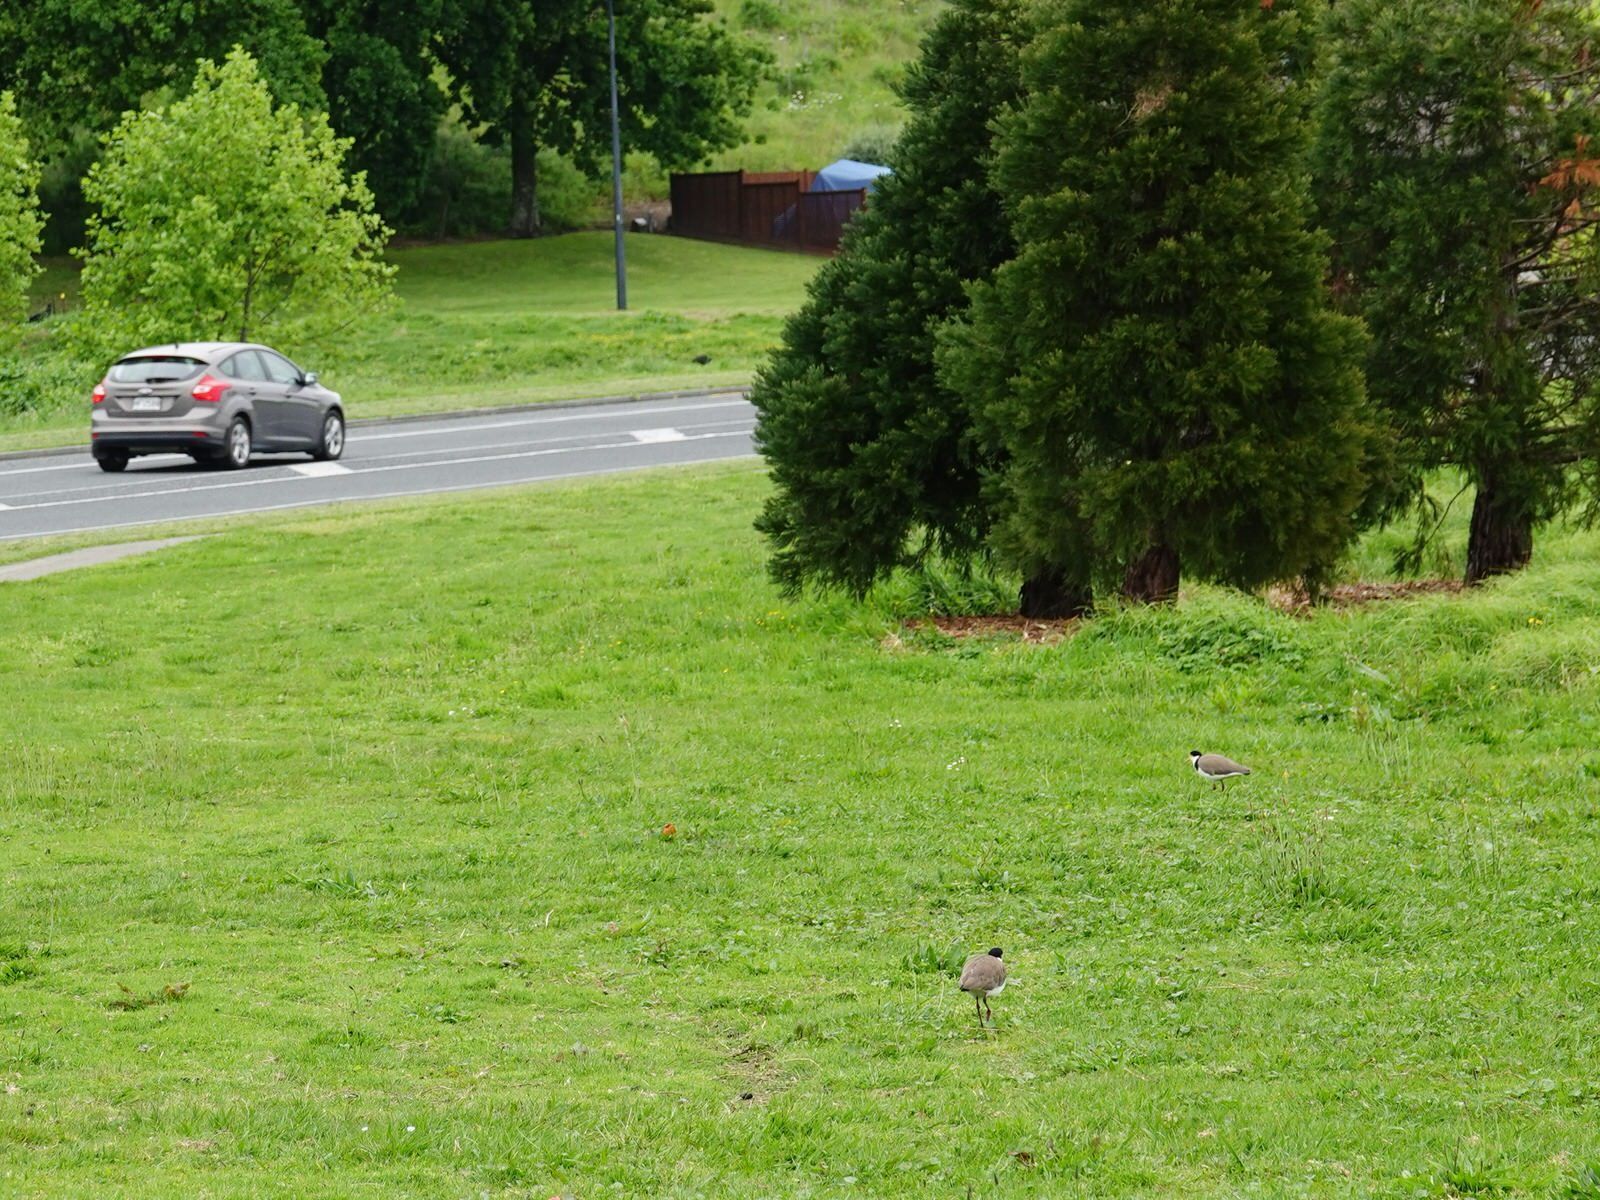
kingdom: Animalia
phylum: Chordata
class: Aves
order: Charadriiformes
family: Charadriidae
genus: Vanellus
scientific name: Vanellus miles
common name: Masked lapwing
